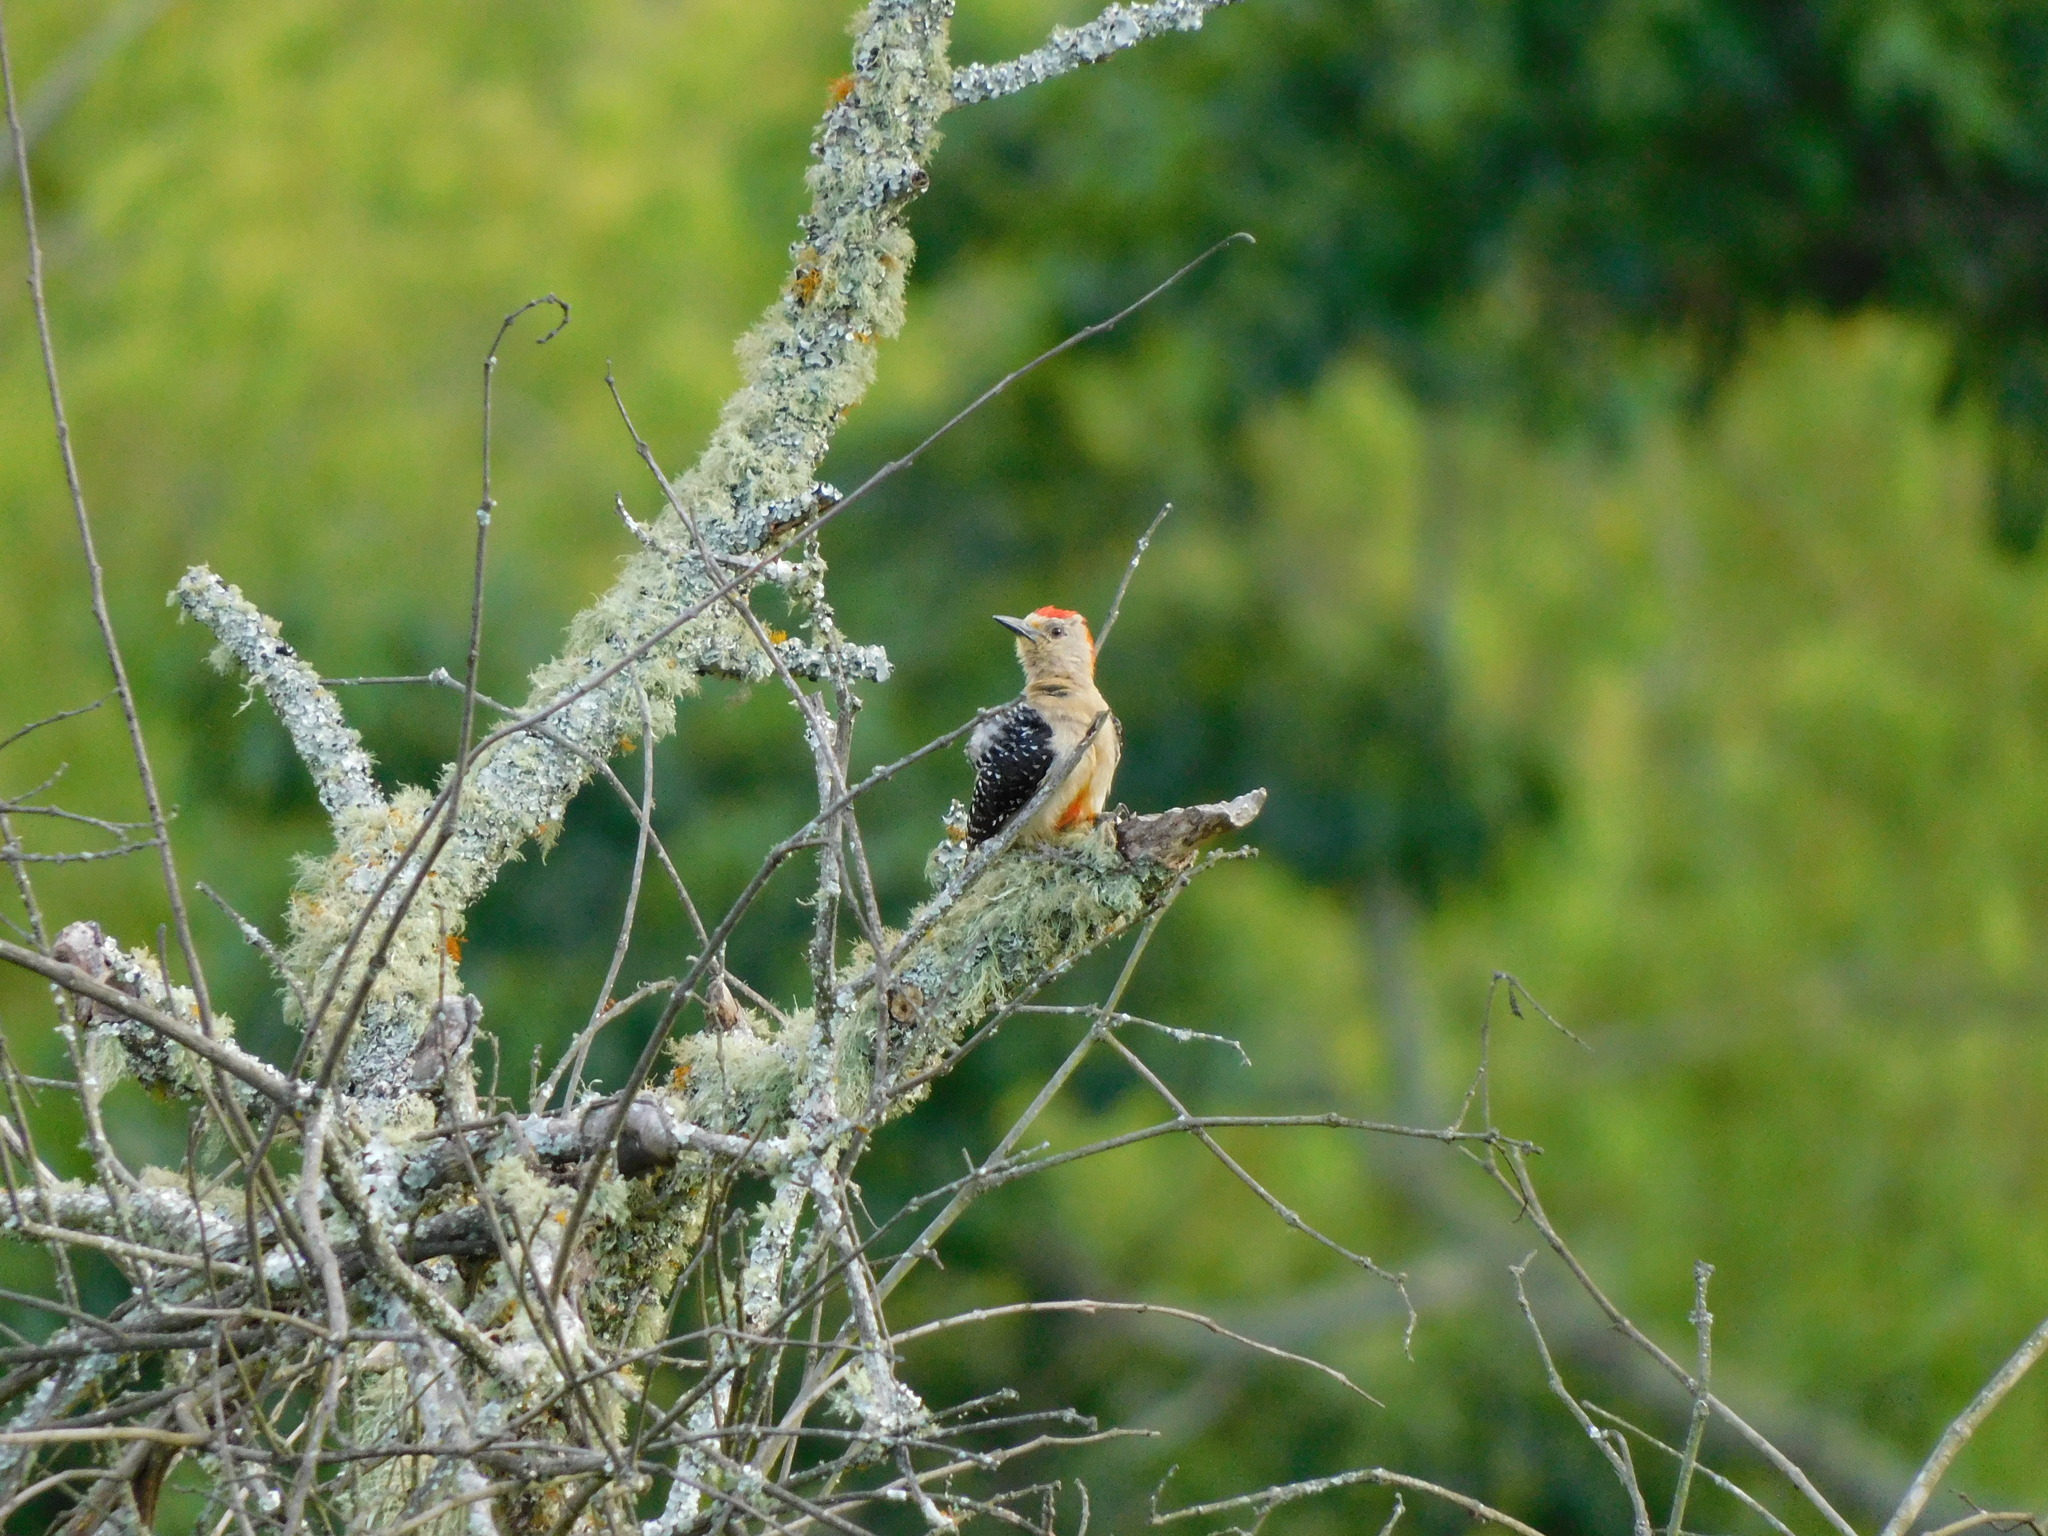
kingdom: Animalia
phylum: Chordata
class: Aves
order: Piciformes
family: Picidae
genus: Melanerpes
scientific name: Melanerpes rubricapillus
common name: Red-crowned woodpecker
